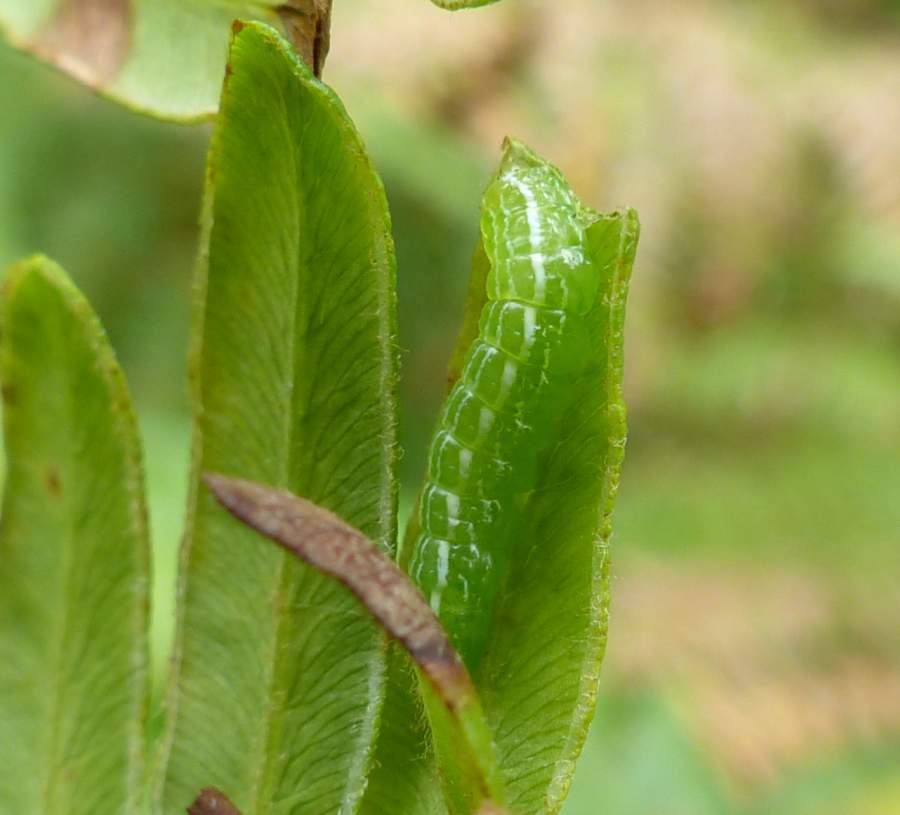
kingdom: Animalia
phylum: Arthropoda
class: Insecta
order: Lepidoptera
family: Noctuidae
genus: Callopistria
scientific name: Callopistria cordata
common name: Silver-spotted fern moth
